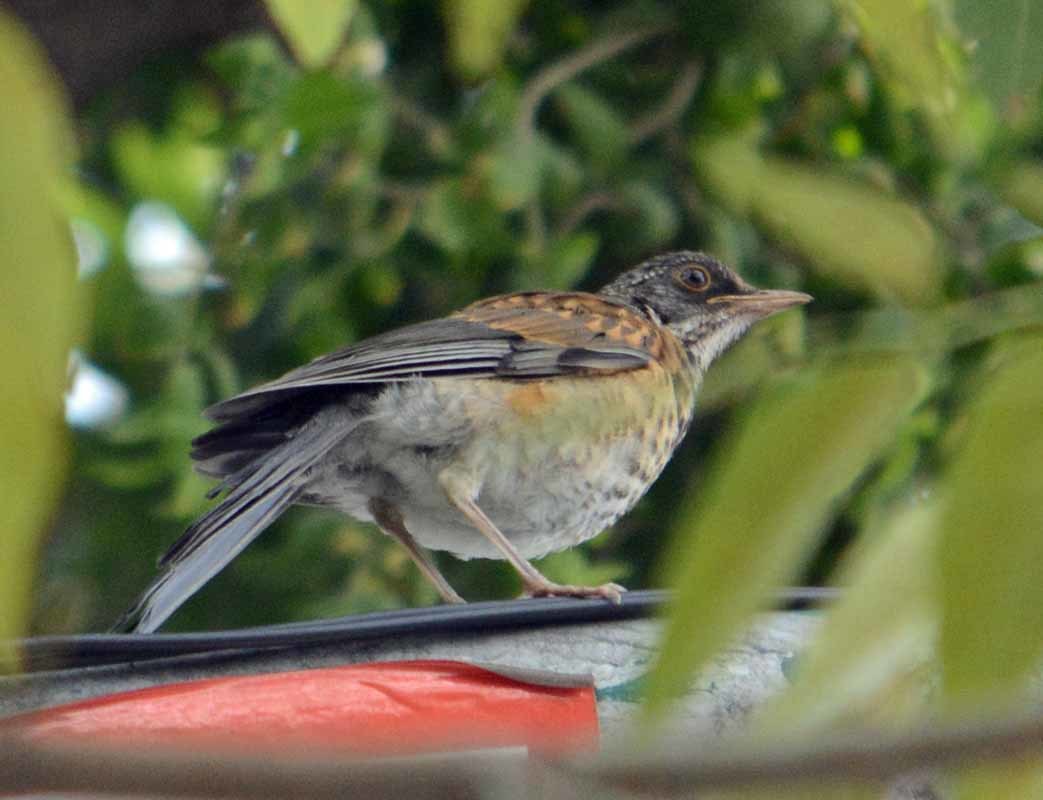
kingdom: Animalia
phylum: Chordata
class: Aves
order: Passeriformes
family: Turdidae
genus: Turdus
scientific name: Turdus rufopalliatus
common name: Rufous-backed robin
